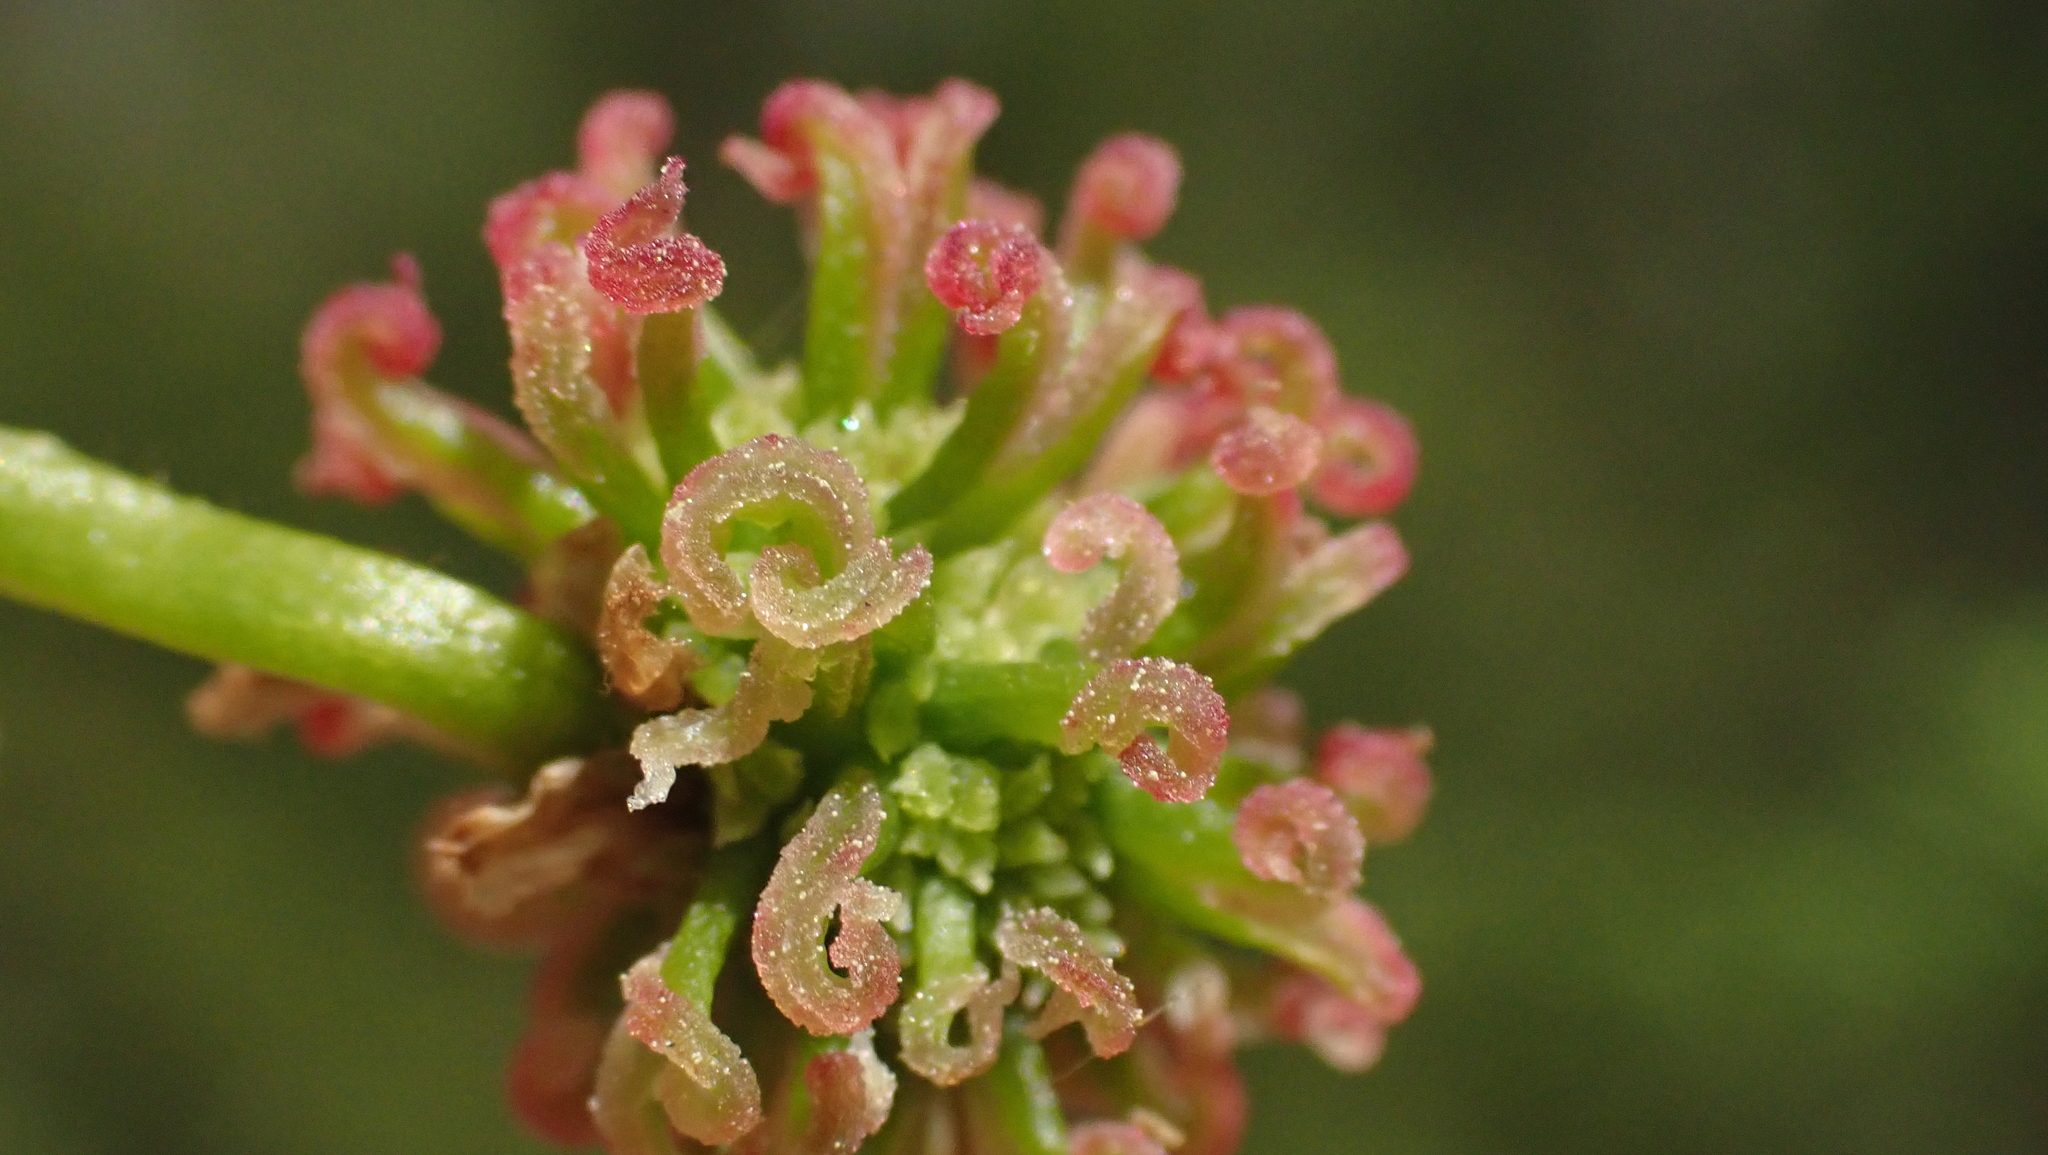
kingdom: Plantae
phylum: Tracheophyta
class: Magnoliopsida
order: Saxifragales
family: Altingiaceae
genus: Liquidambar
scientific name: Liquidambar styraciflua
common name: Sweet gum
